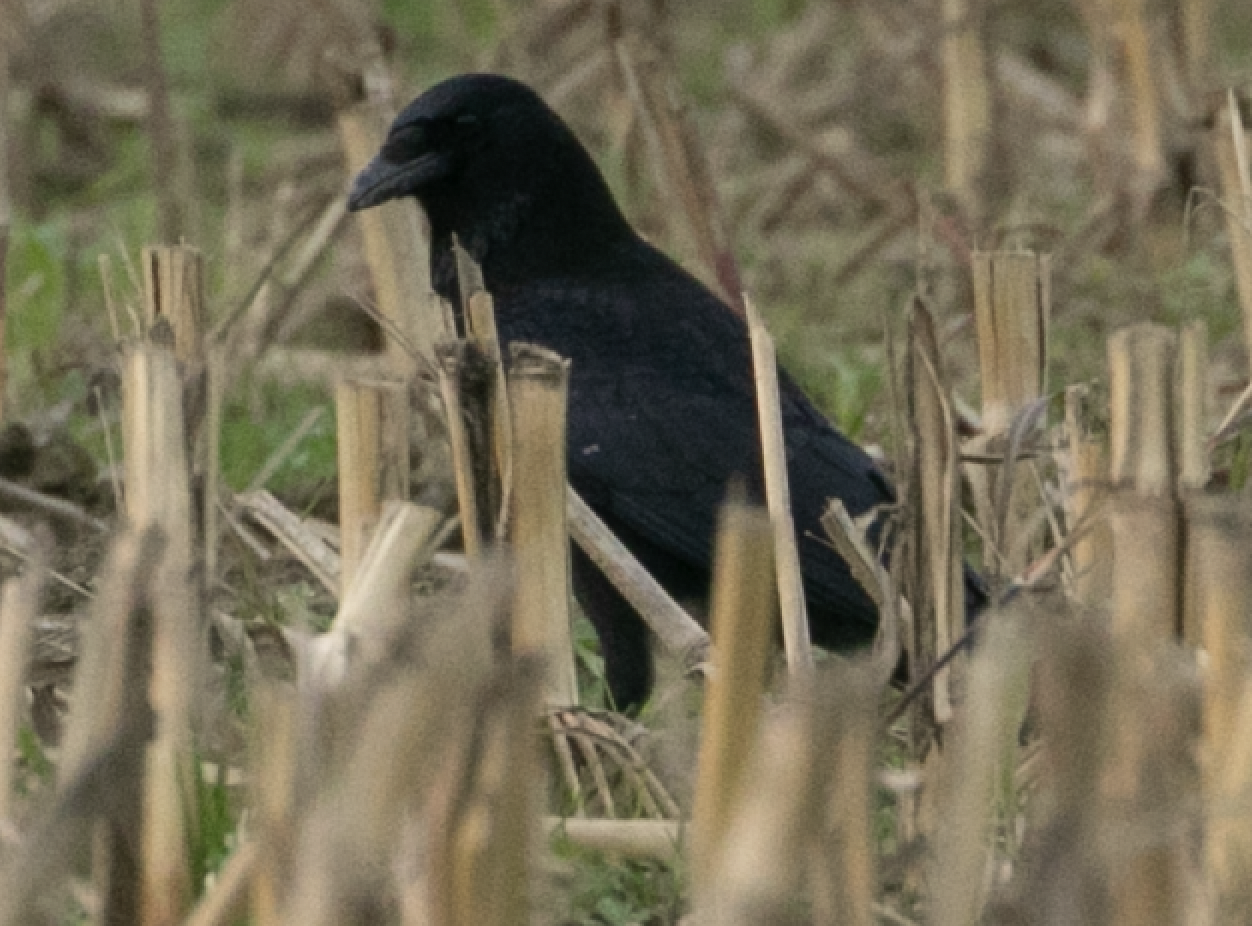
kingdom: Animalia
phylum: Chordata
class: Aves
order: Passeriformes
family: Corvidae
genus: Corvus
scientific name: Corvus corone
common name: Carrion crow
